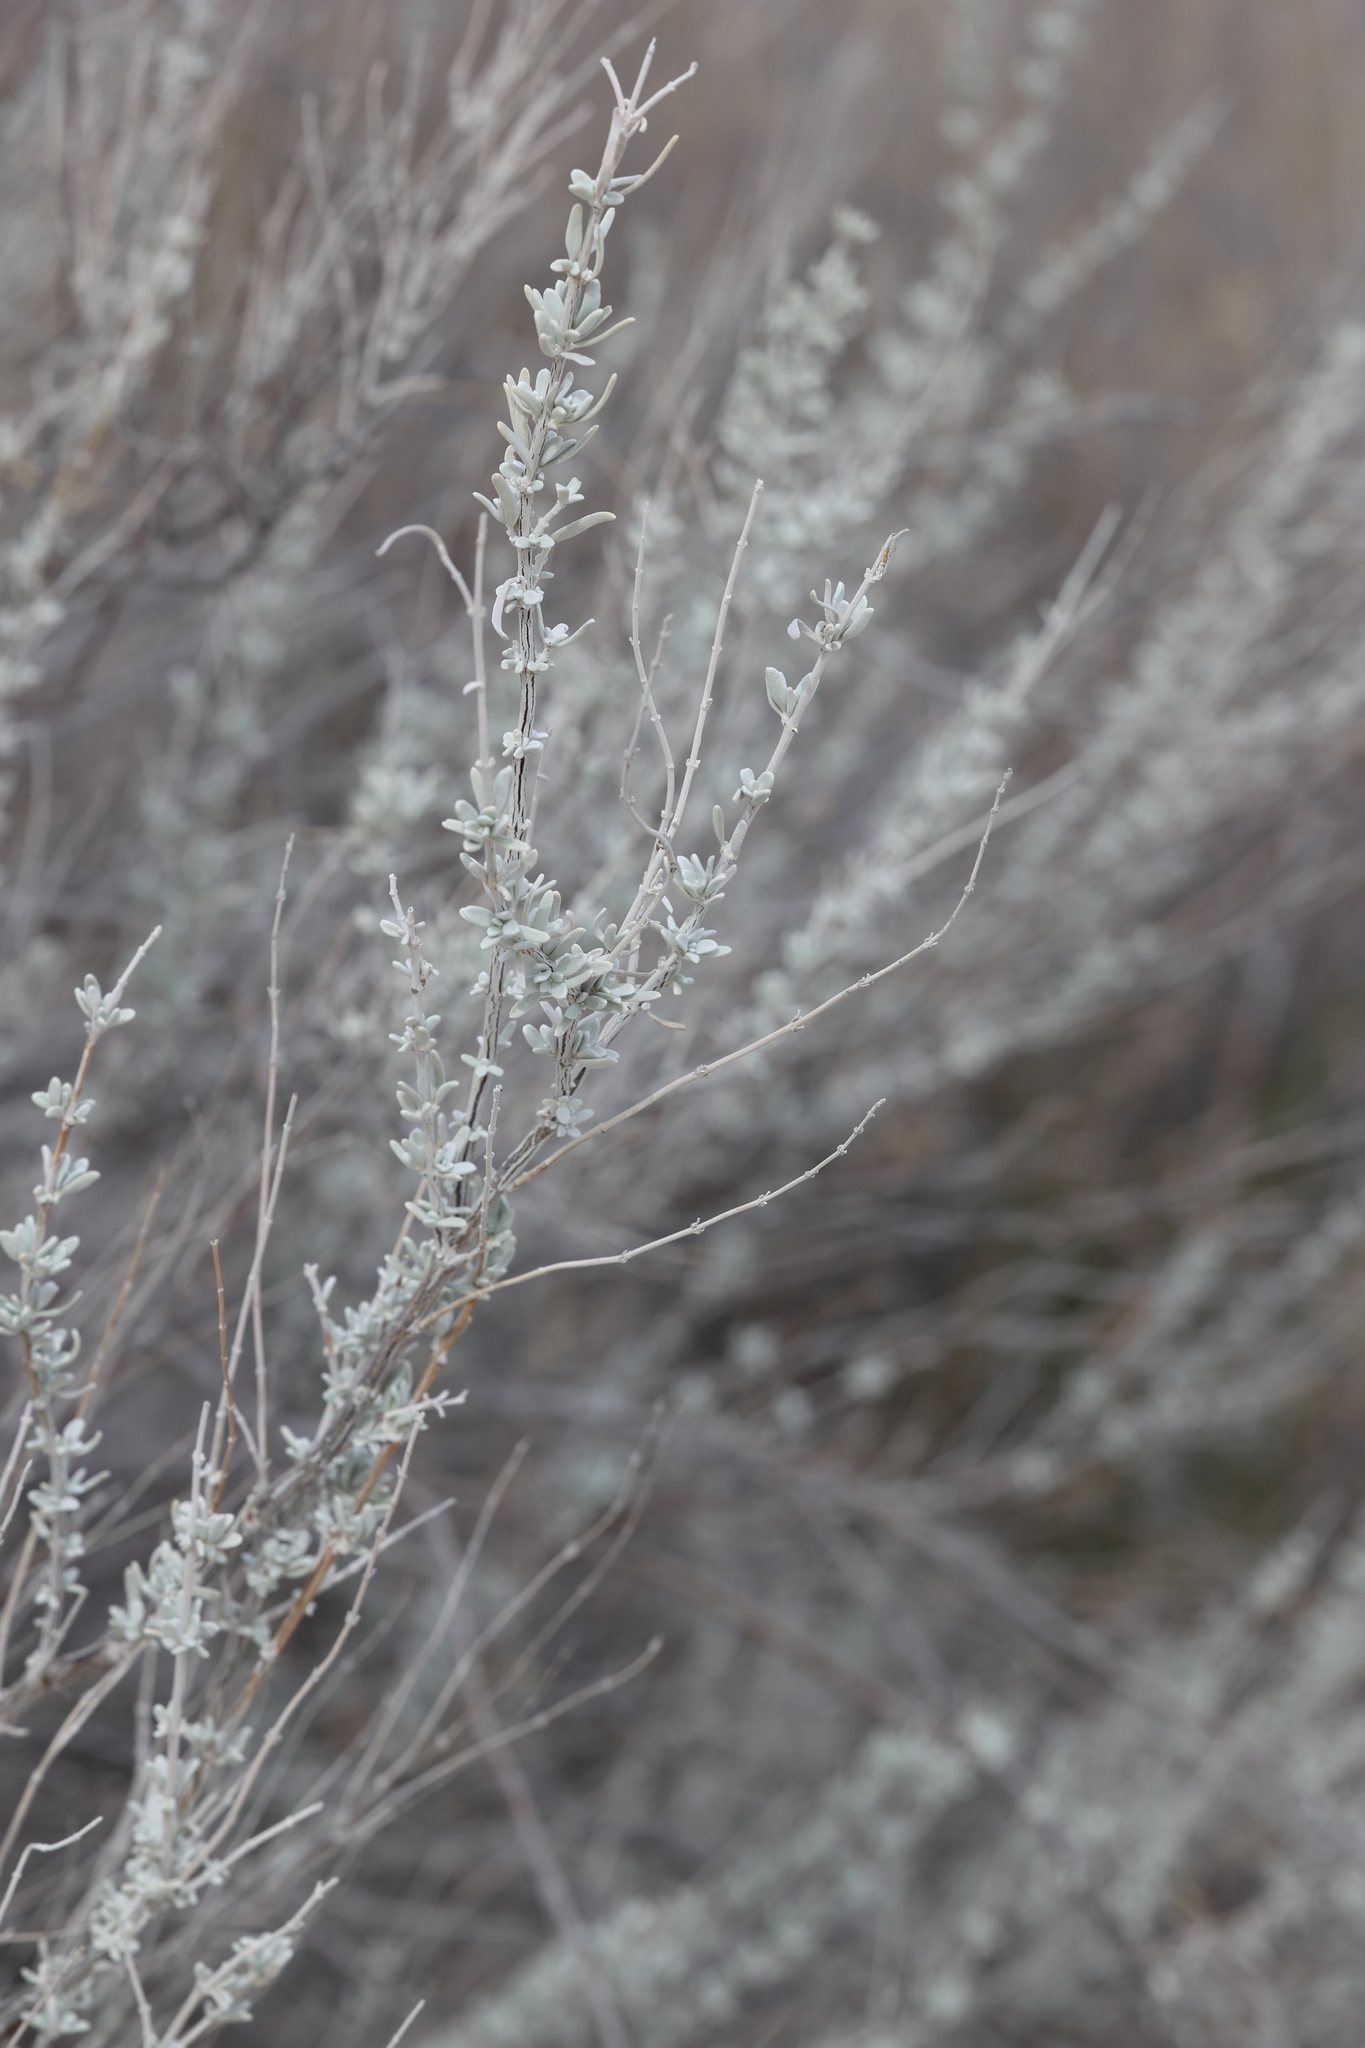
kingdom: Plantae
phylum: Tracheophyta
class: Magnoliopsida
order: Lamiales
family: Lamiaceae
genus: Poliomintha
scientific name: Poliomintha incana
